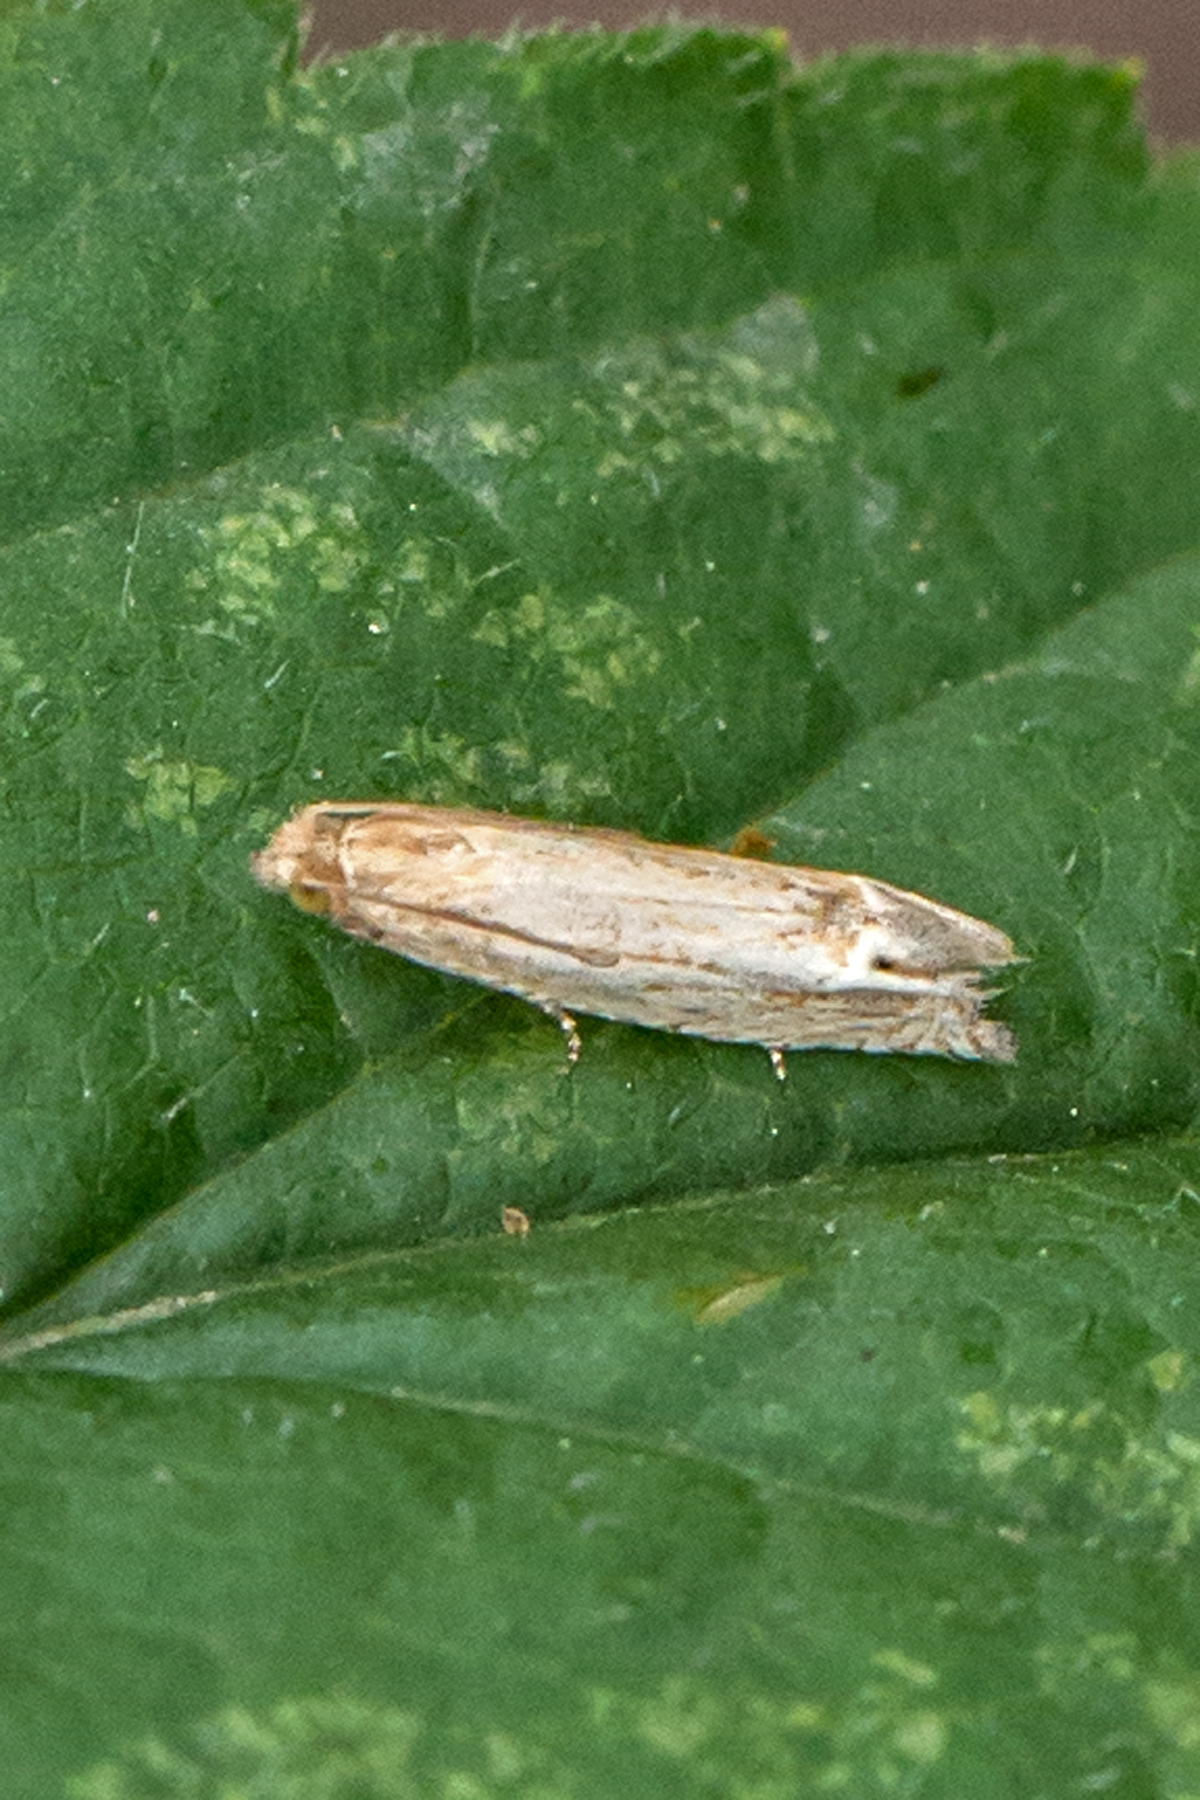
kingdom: Animalia
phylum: Arthropoda
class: Insecta
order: Lepidoptera
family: Tortricidae
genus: Pelochrista
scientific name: Pelochrista cataclystiana
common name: Goldenrod pelochrista moth
